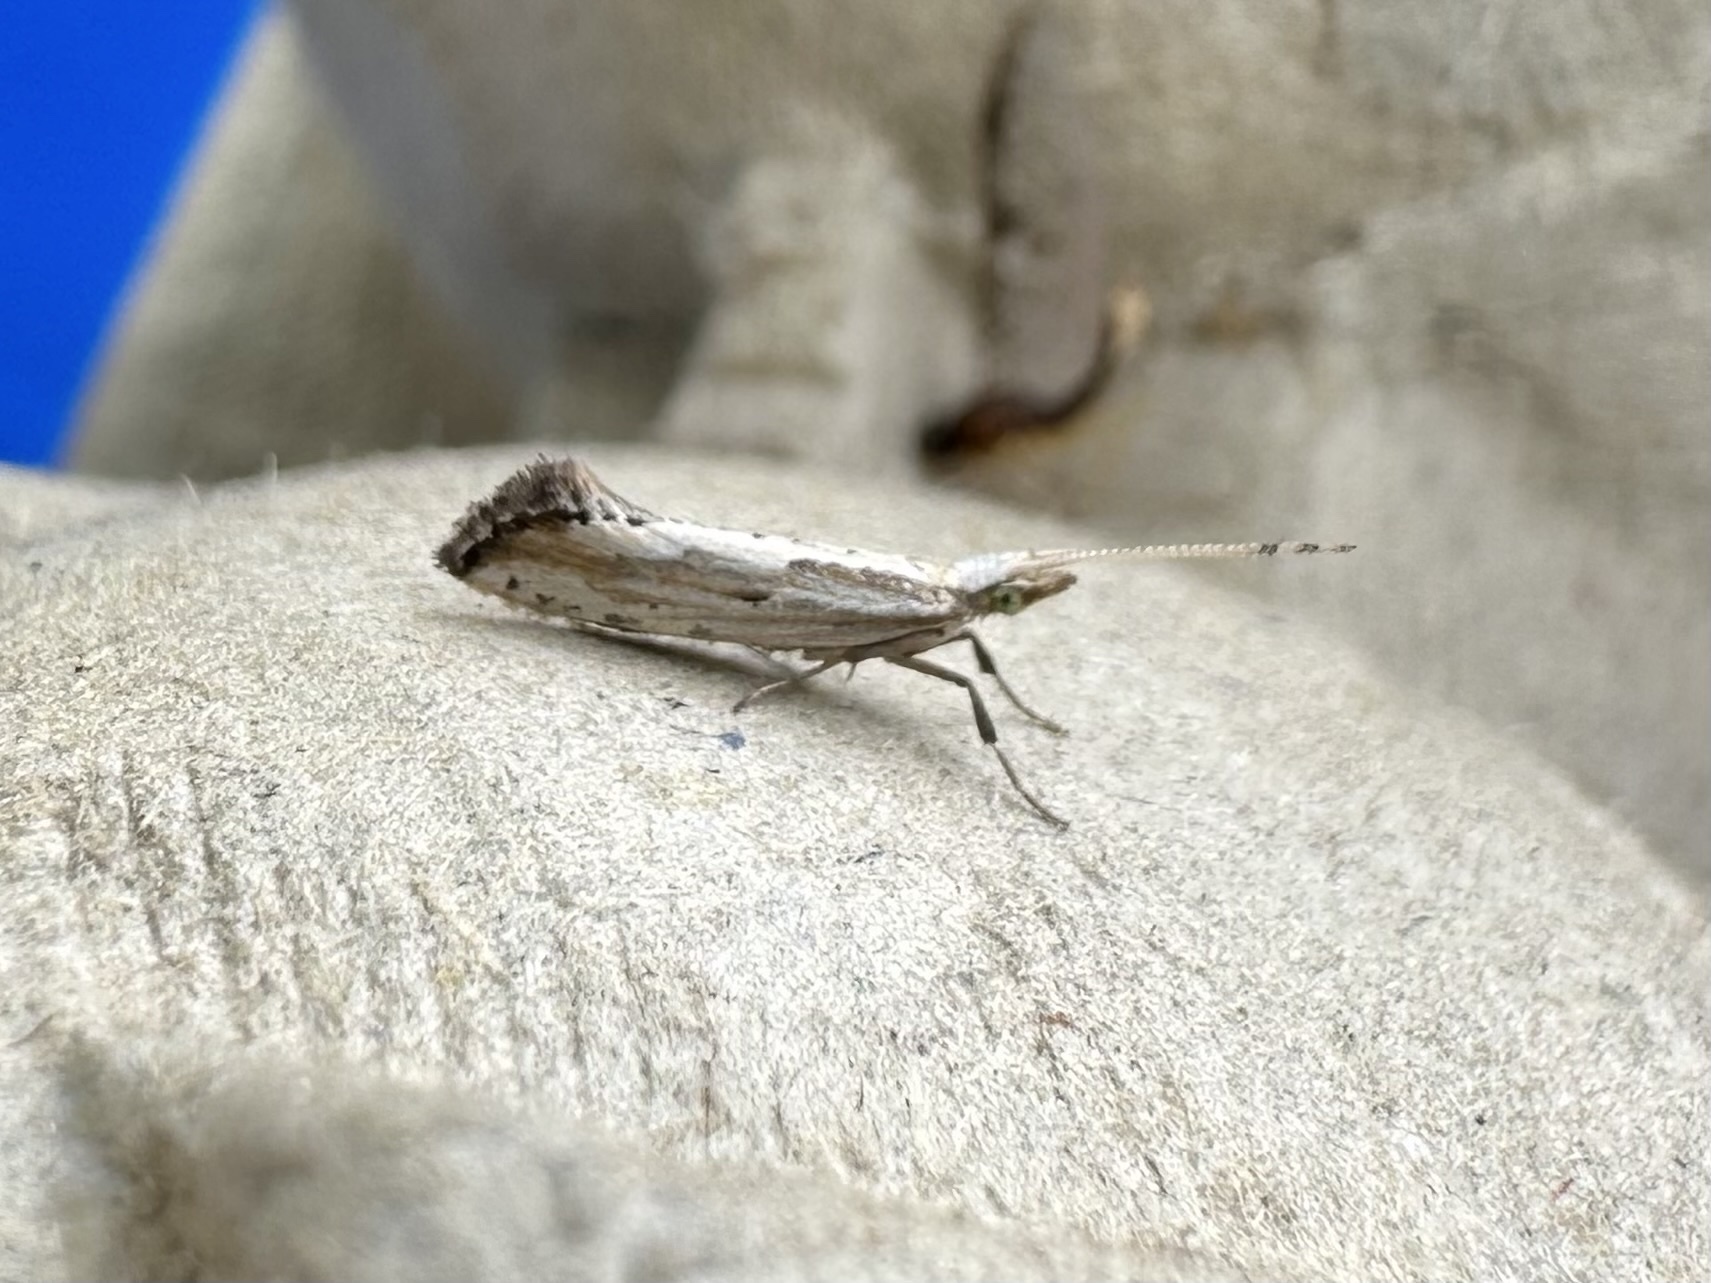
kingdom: Animalia
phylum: Arthropoda
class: Insecta
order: Lepidoptera
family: Plutellidae
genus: Plutella
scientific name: Plutella porrectella
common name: Dame's rocket moth
